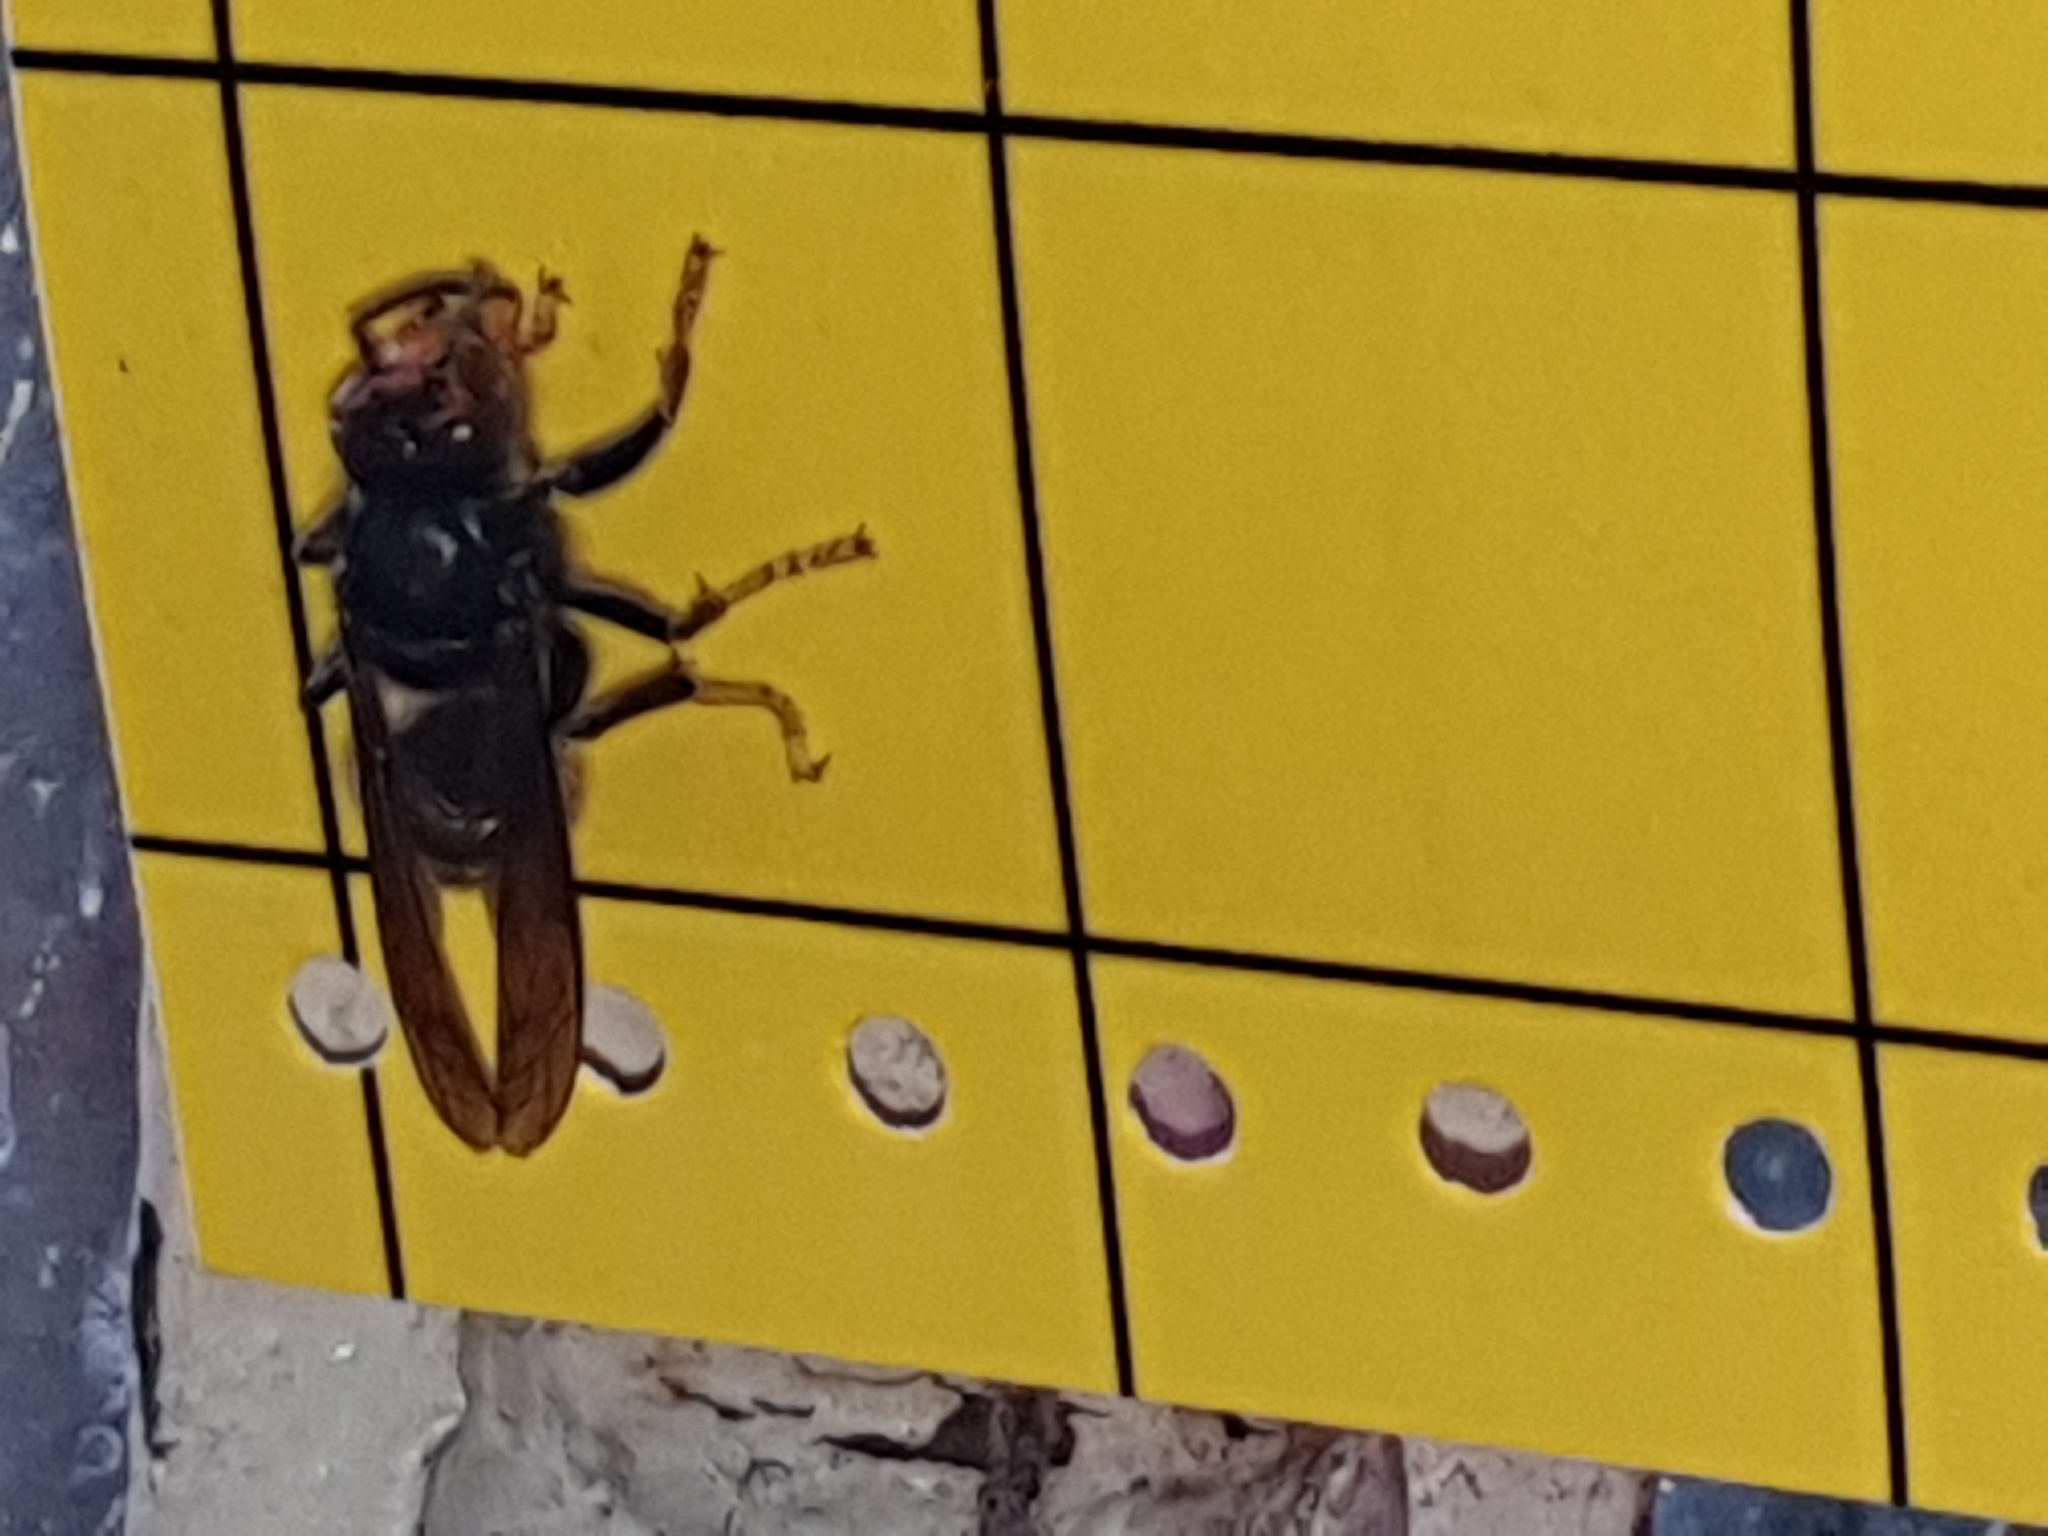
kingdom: Animalia
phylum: Arthropoda
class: Insecta
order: Hymenoptera
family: Vespidae
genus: Vespa
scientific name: Vespa velutina
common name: Asian hornet
